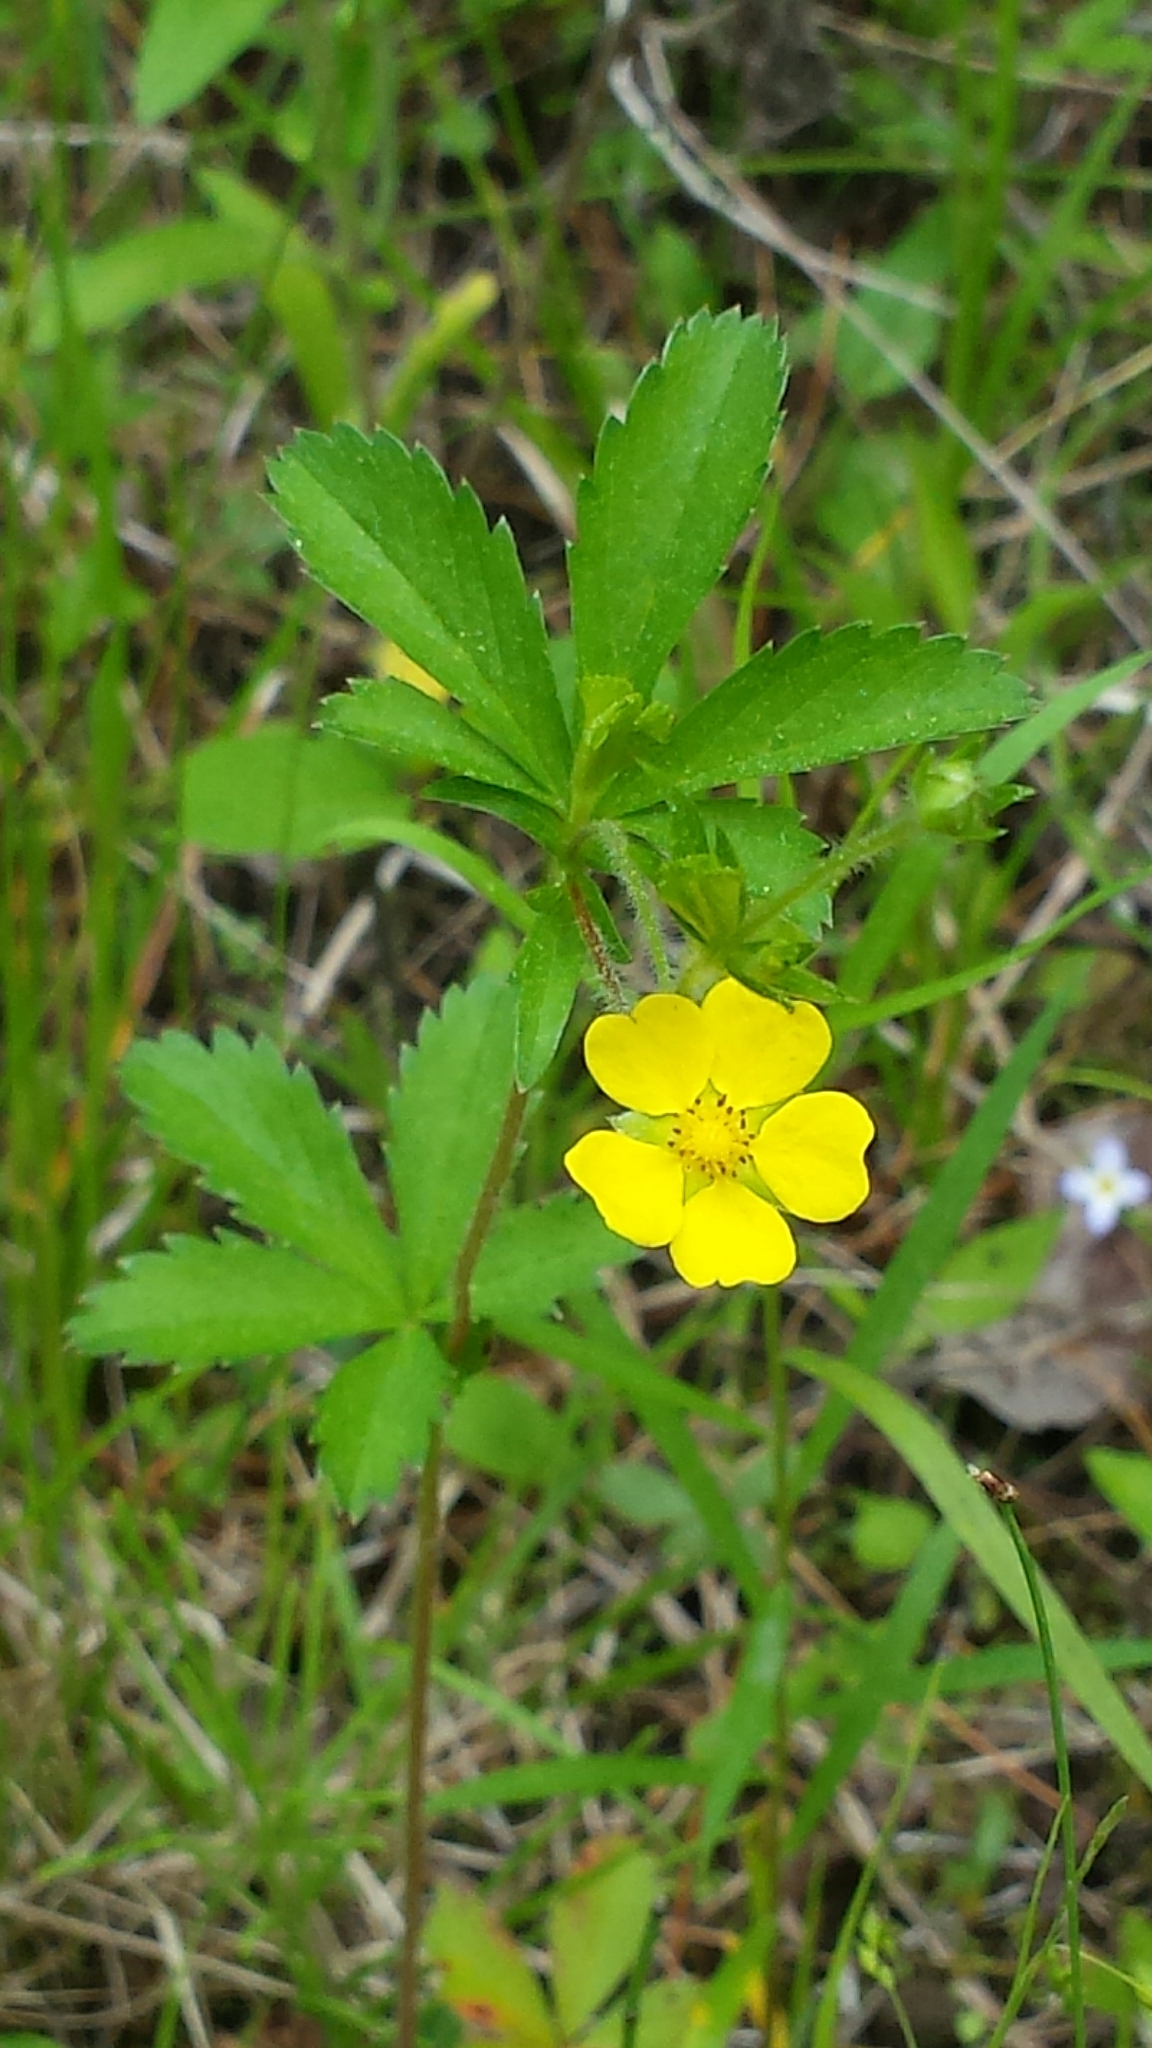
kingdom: Plantae
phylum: Tracheophyta
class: Magnoliopsida
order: Rosales
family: Rosaceae
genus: Potentilla
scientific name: Potentilla simplex
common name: Old field cinquefoil
